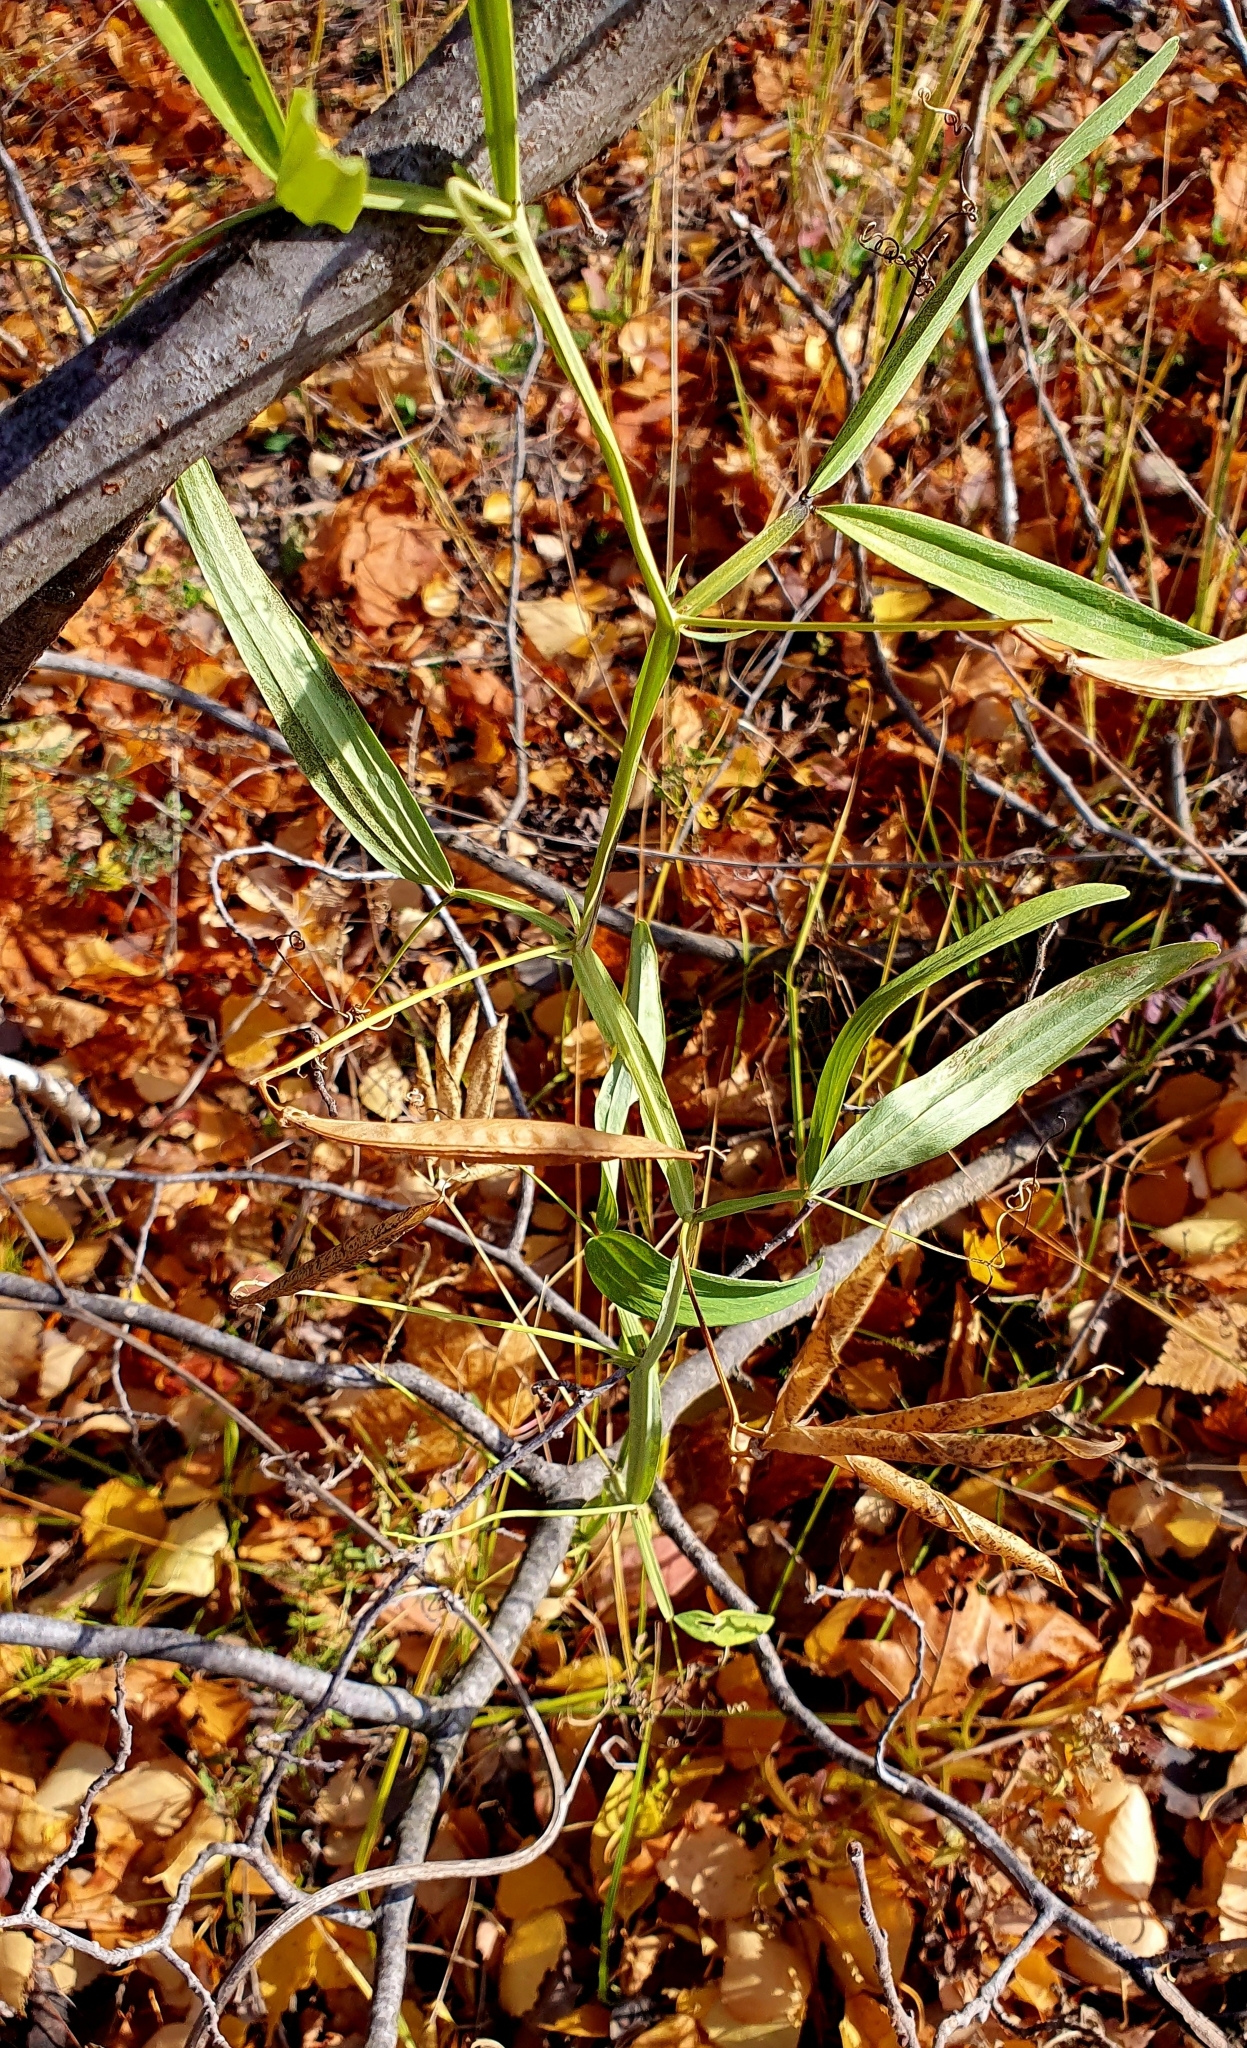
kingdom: Plantae
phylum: Tracheophyta
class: Magnoliopsida
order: Fabales
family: Fabaceae
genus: Lathyrus
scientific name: Lathyrus sylvestris
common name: Flat pea
